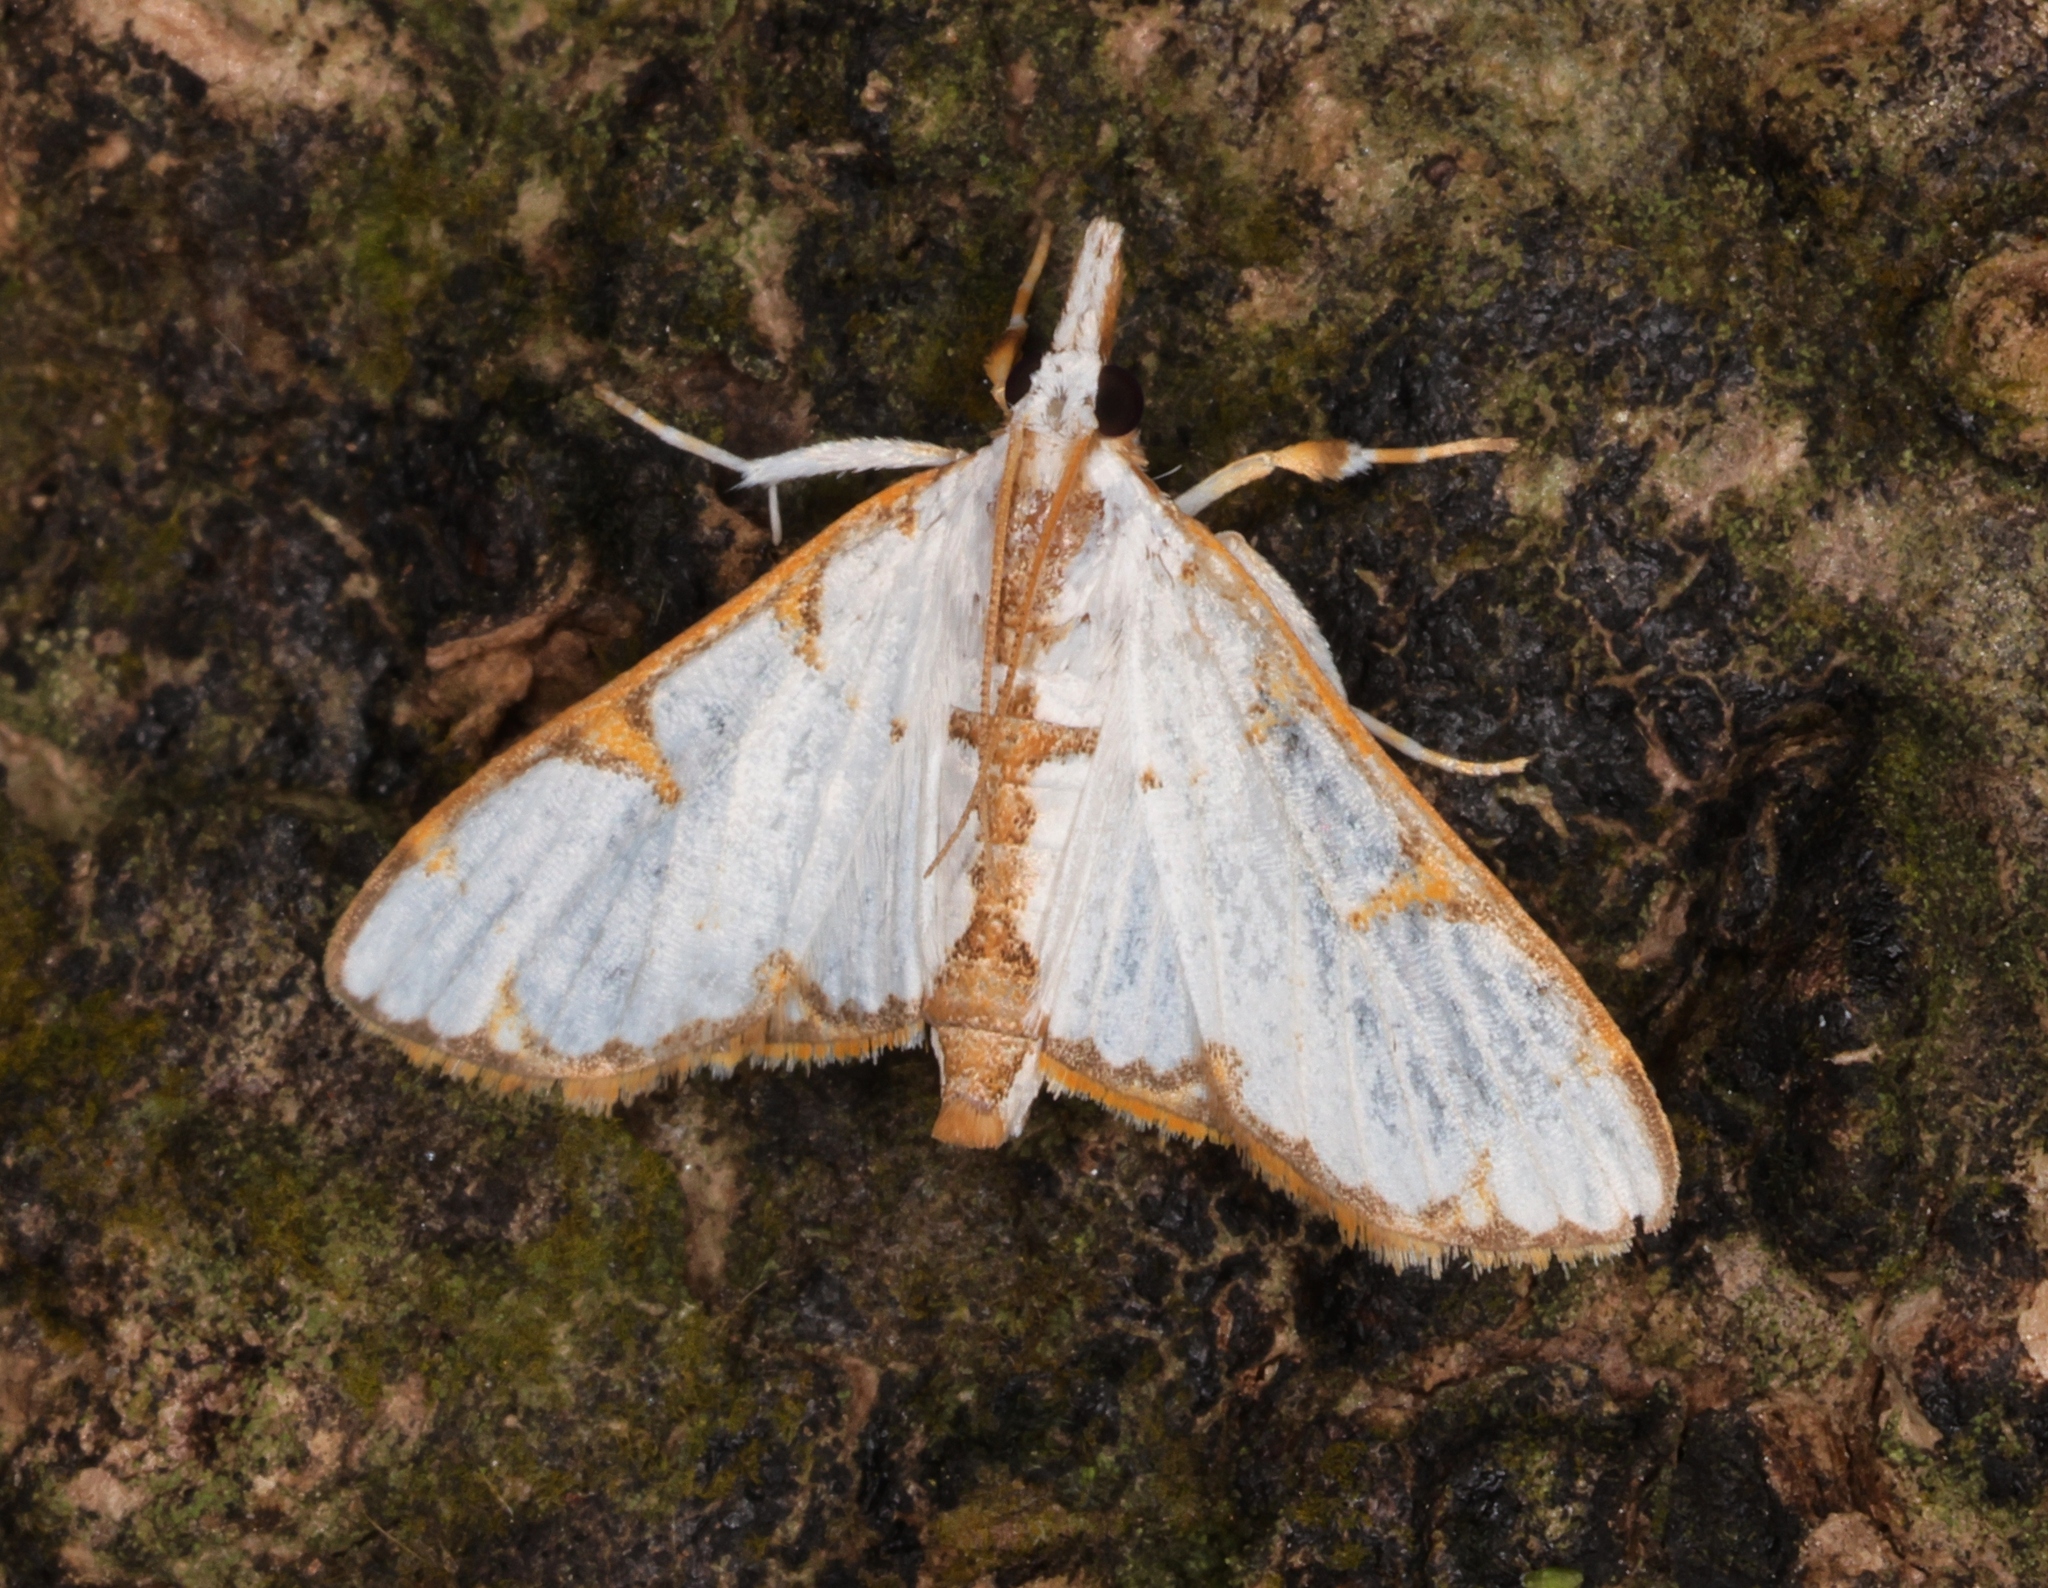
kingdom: Animalia
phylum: Arthropoda
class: Insecta
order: Lepidoptera
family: Crambidae
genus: Cirrhochrista
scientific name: Cirrhochrista brizoalis
